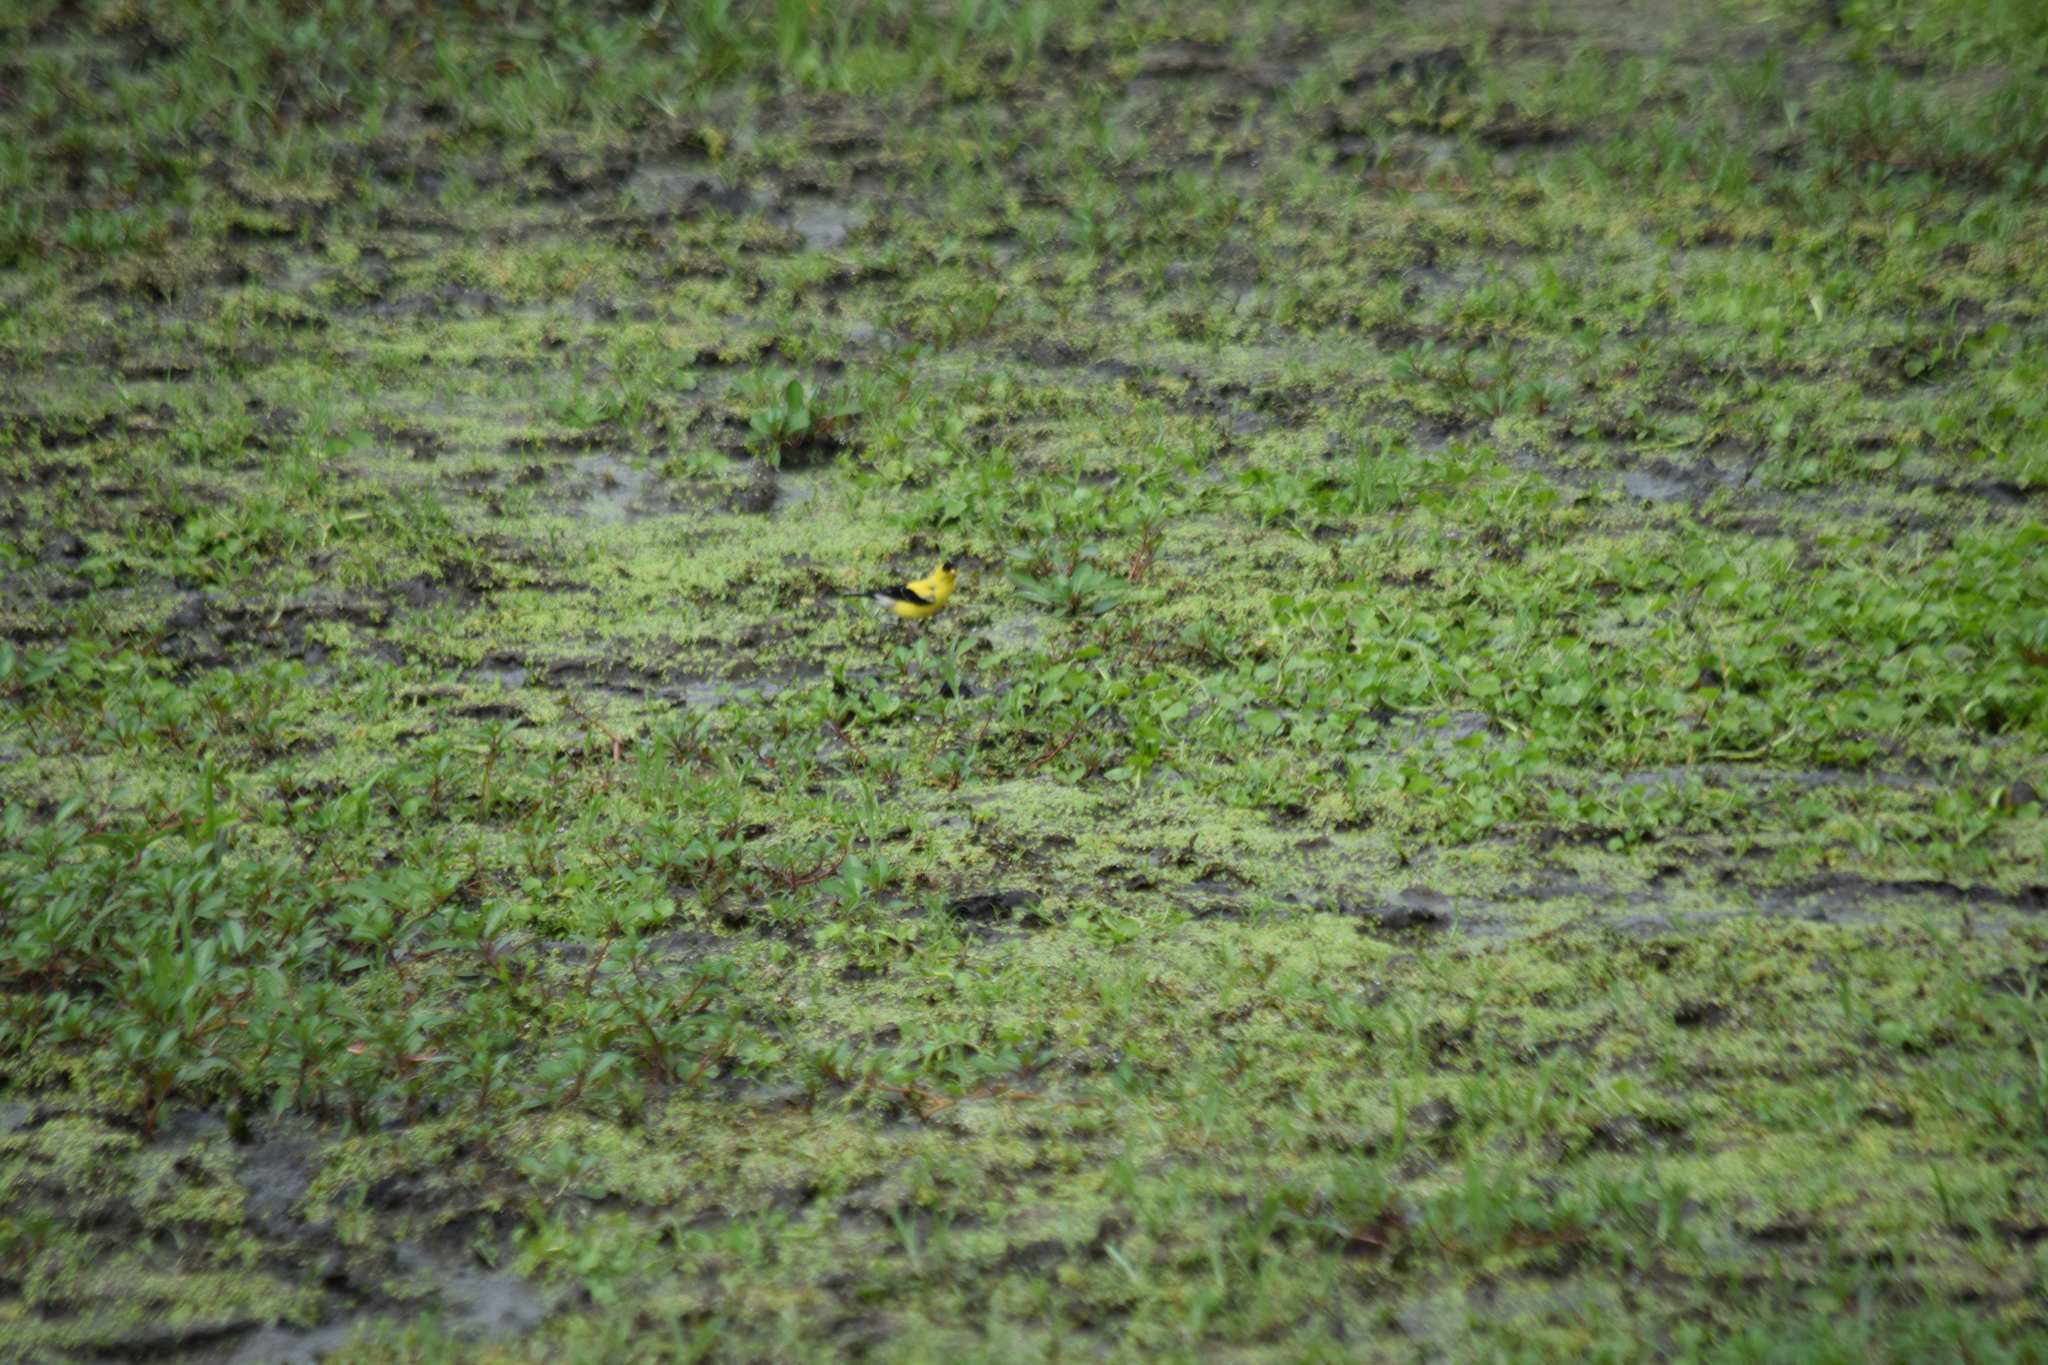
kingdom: Animalia
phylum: Chordata
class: Aves
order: Passeriformes
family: Fringillidae
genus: Spinus
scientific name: Spinus tristis
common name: American goldfinch
